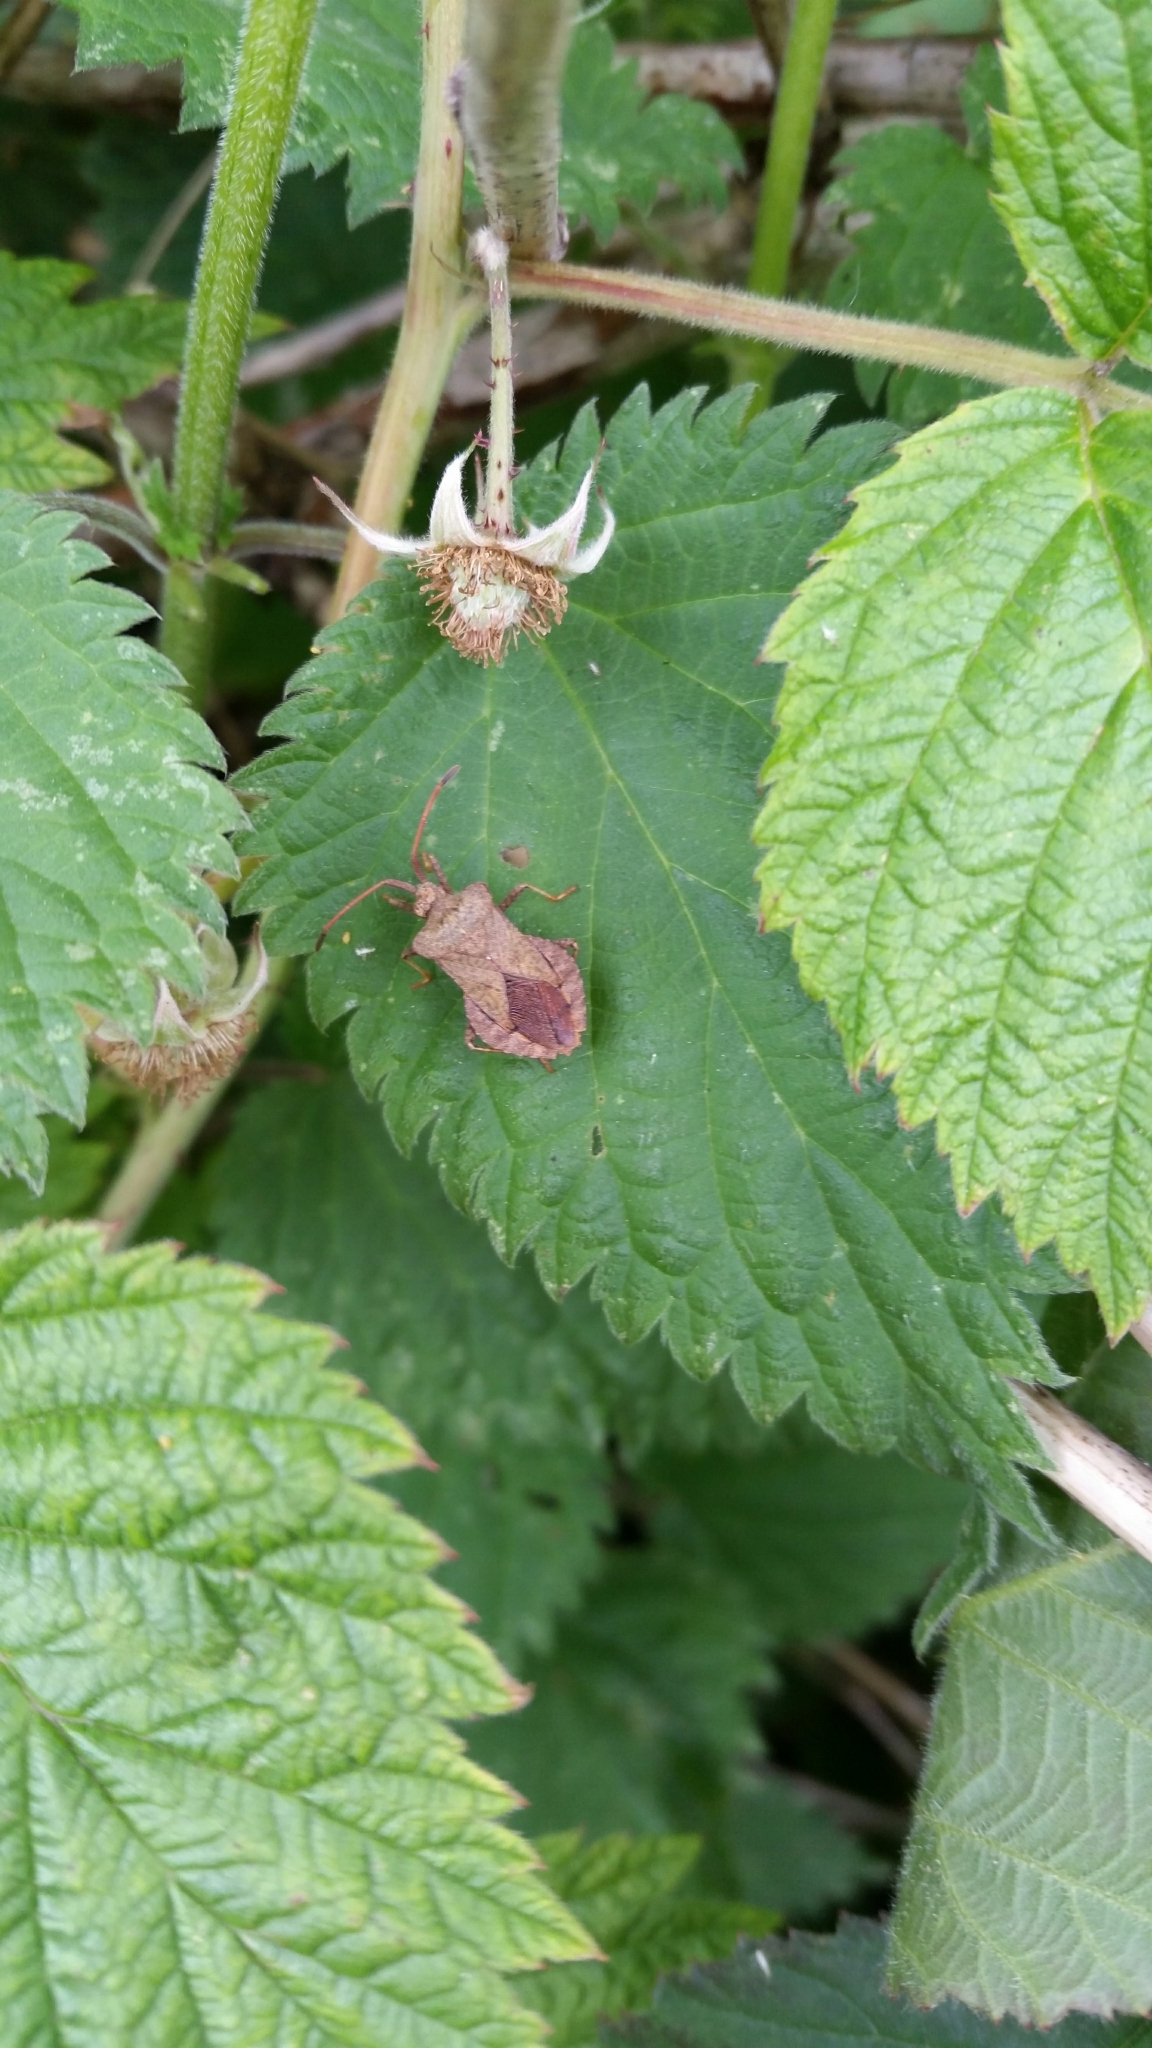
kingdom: Animalia
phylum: Arthropoda
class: Insecta
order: Hemiptera
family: Coreidae
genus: Coreus
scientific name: Coreus marginatus
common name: Dock bug
